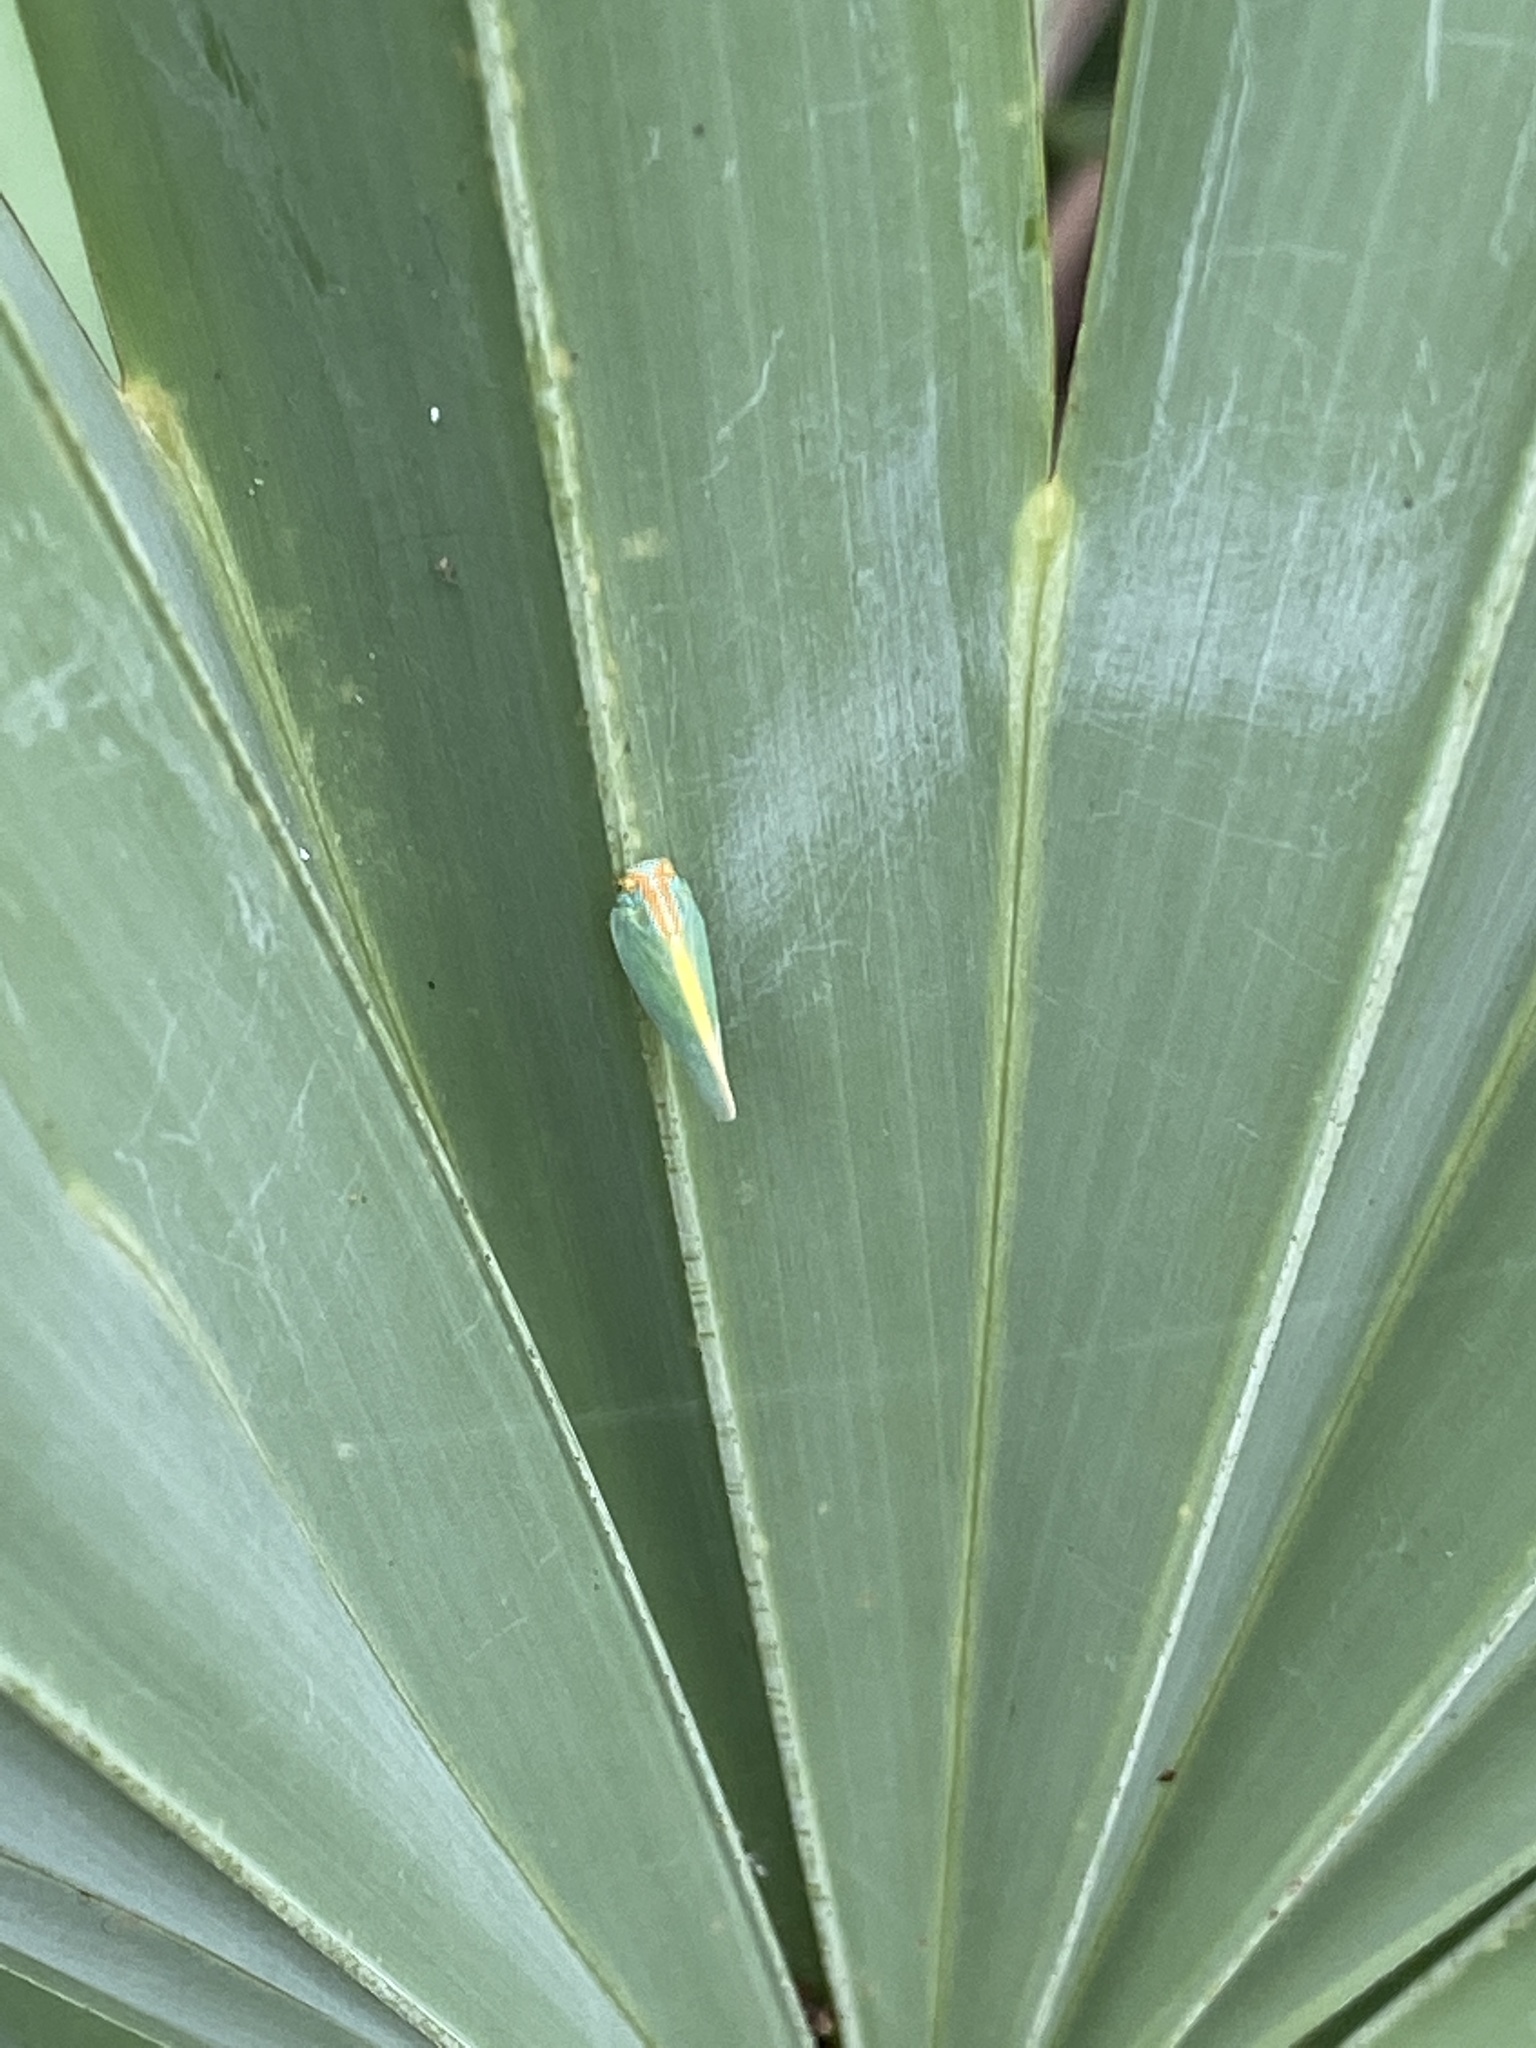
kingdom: Animalia
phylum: Arthropoda
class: Insecta
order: Hemiptera
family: Flatidae
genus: Ormenaria
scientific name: Ormenaria rufifascia
